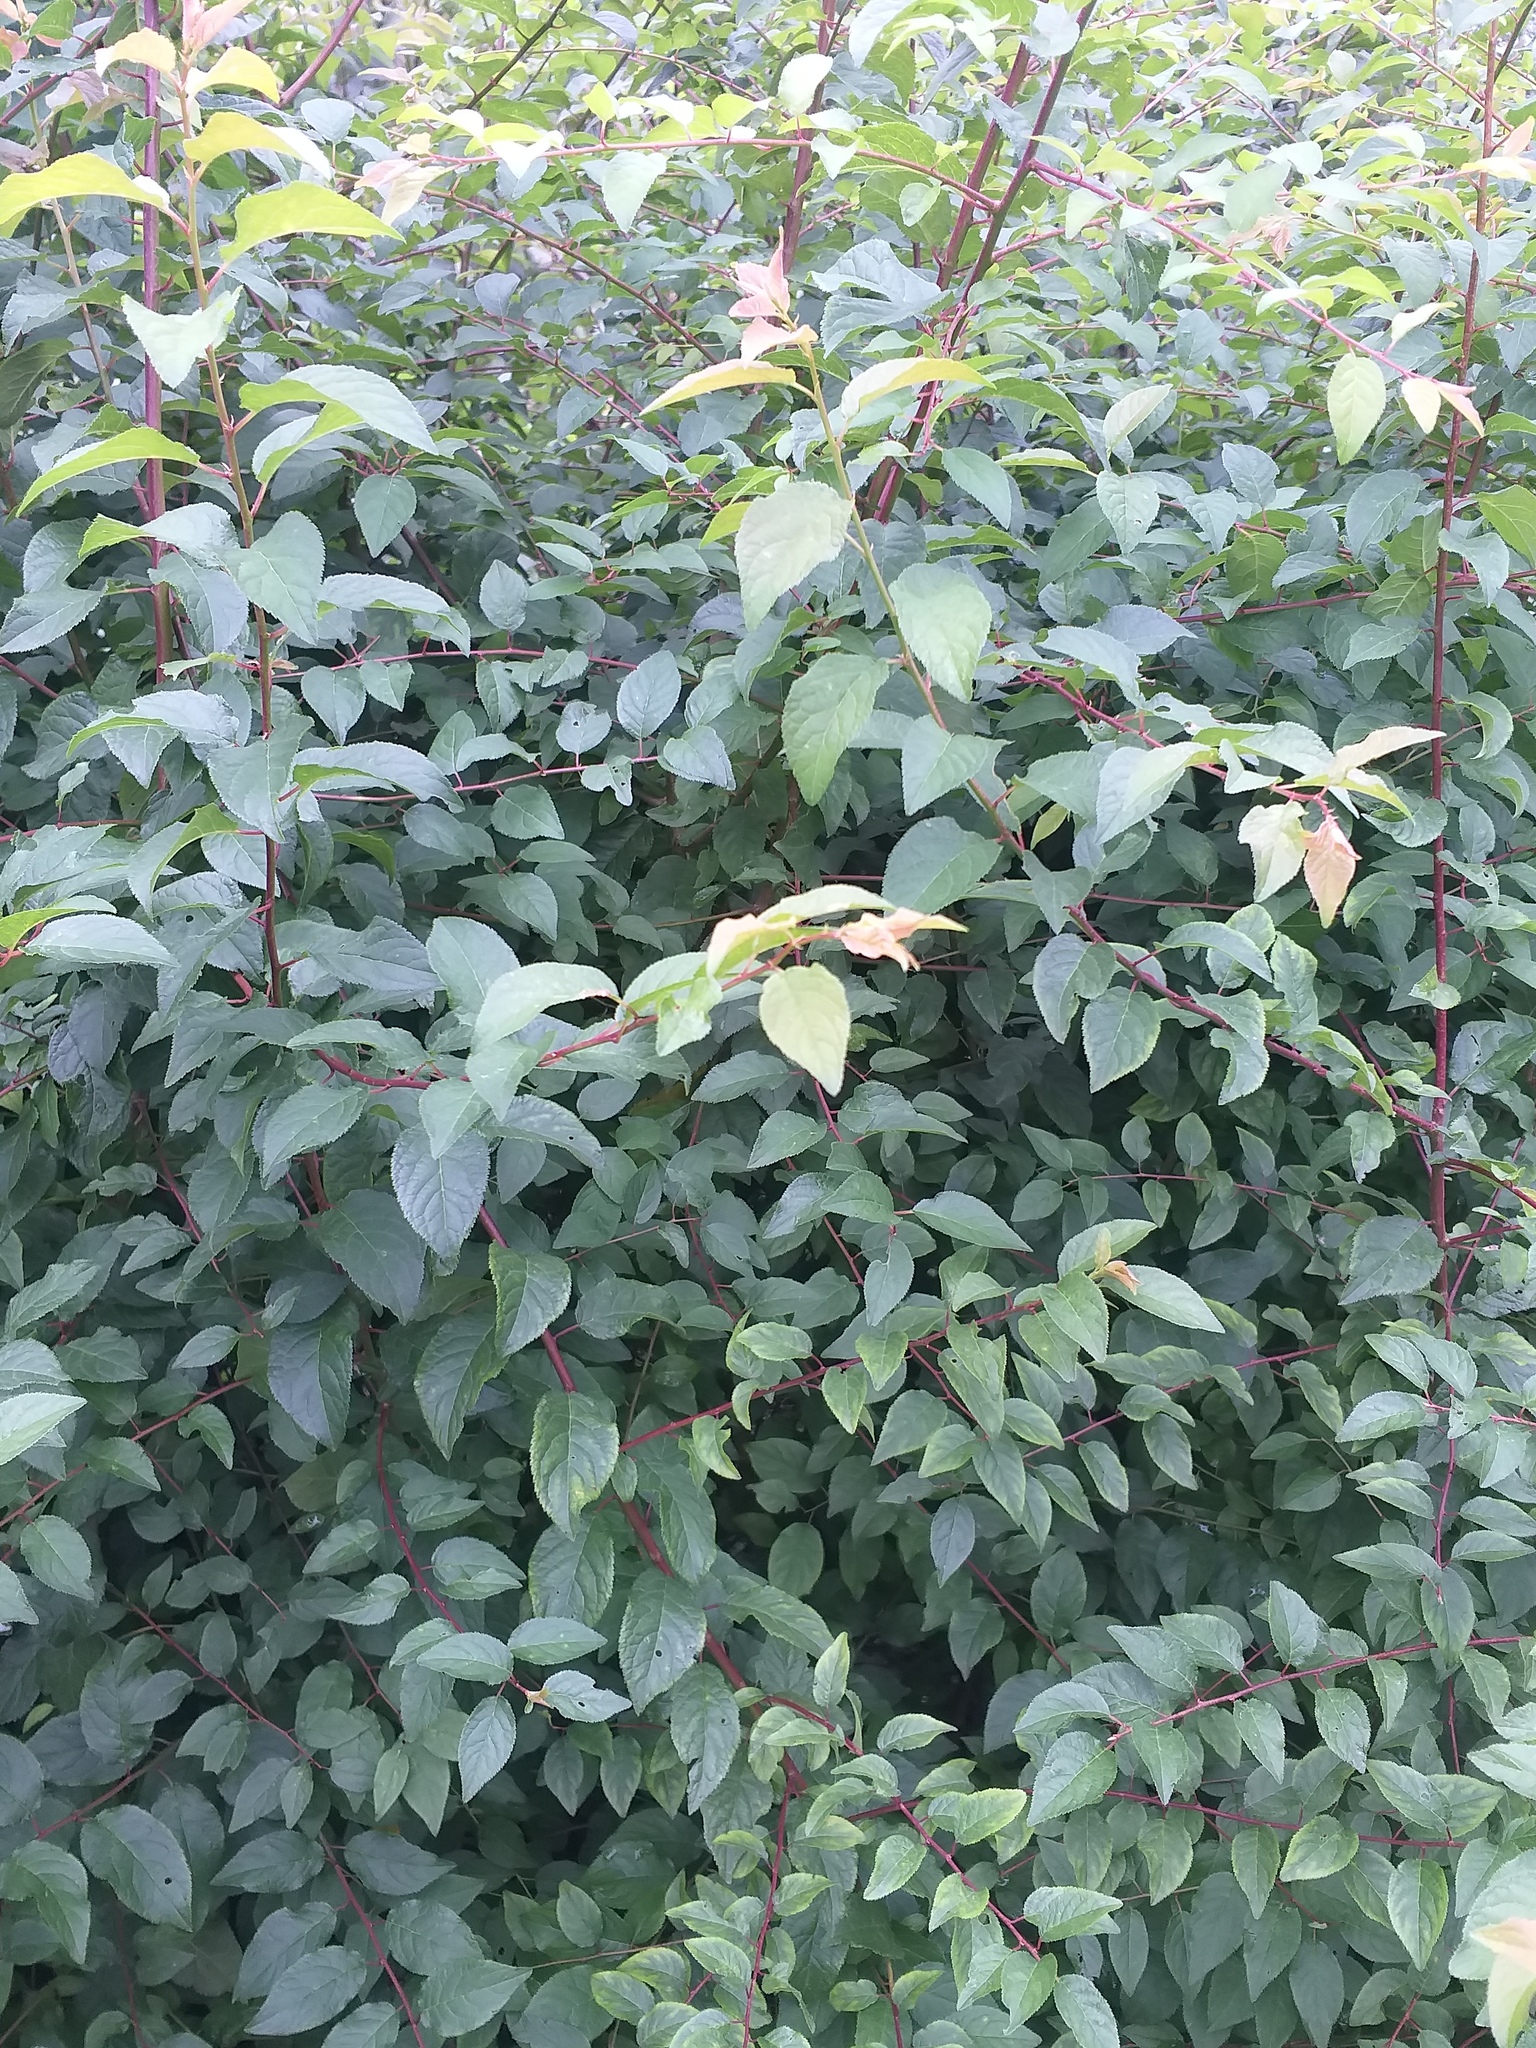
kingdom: Plantae
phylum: Tracheophyta
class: Magnoliopsida
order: Rosales
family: Rosaceae
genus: Prunus
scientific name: Prunus cerasifera
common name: Cherry plum
